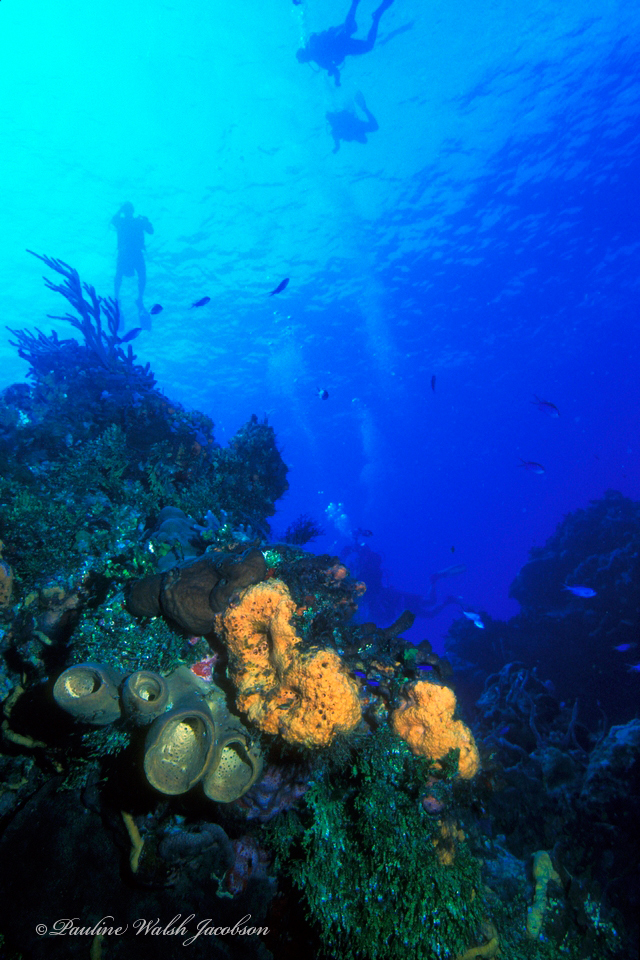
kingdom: Animalia
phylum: Porifera
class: Demospongiae
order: Agelasida
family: Agelasidae
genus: Agelas
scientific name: Agelas clathrodes
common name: Orange elephant ear sponge
